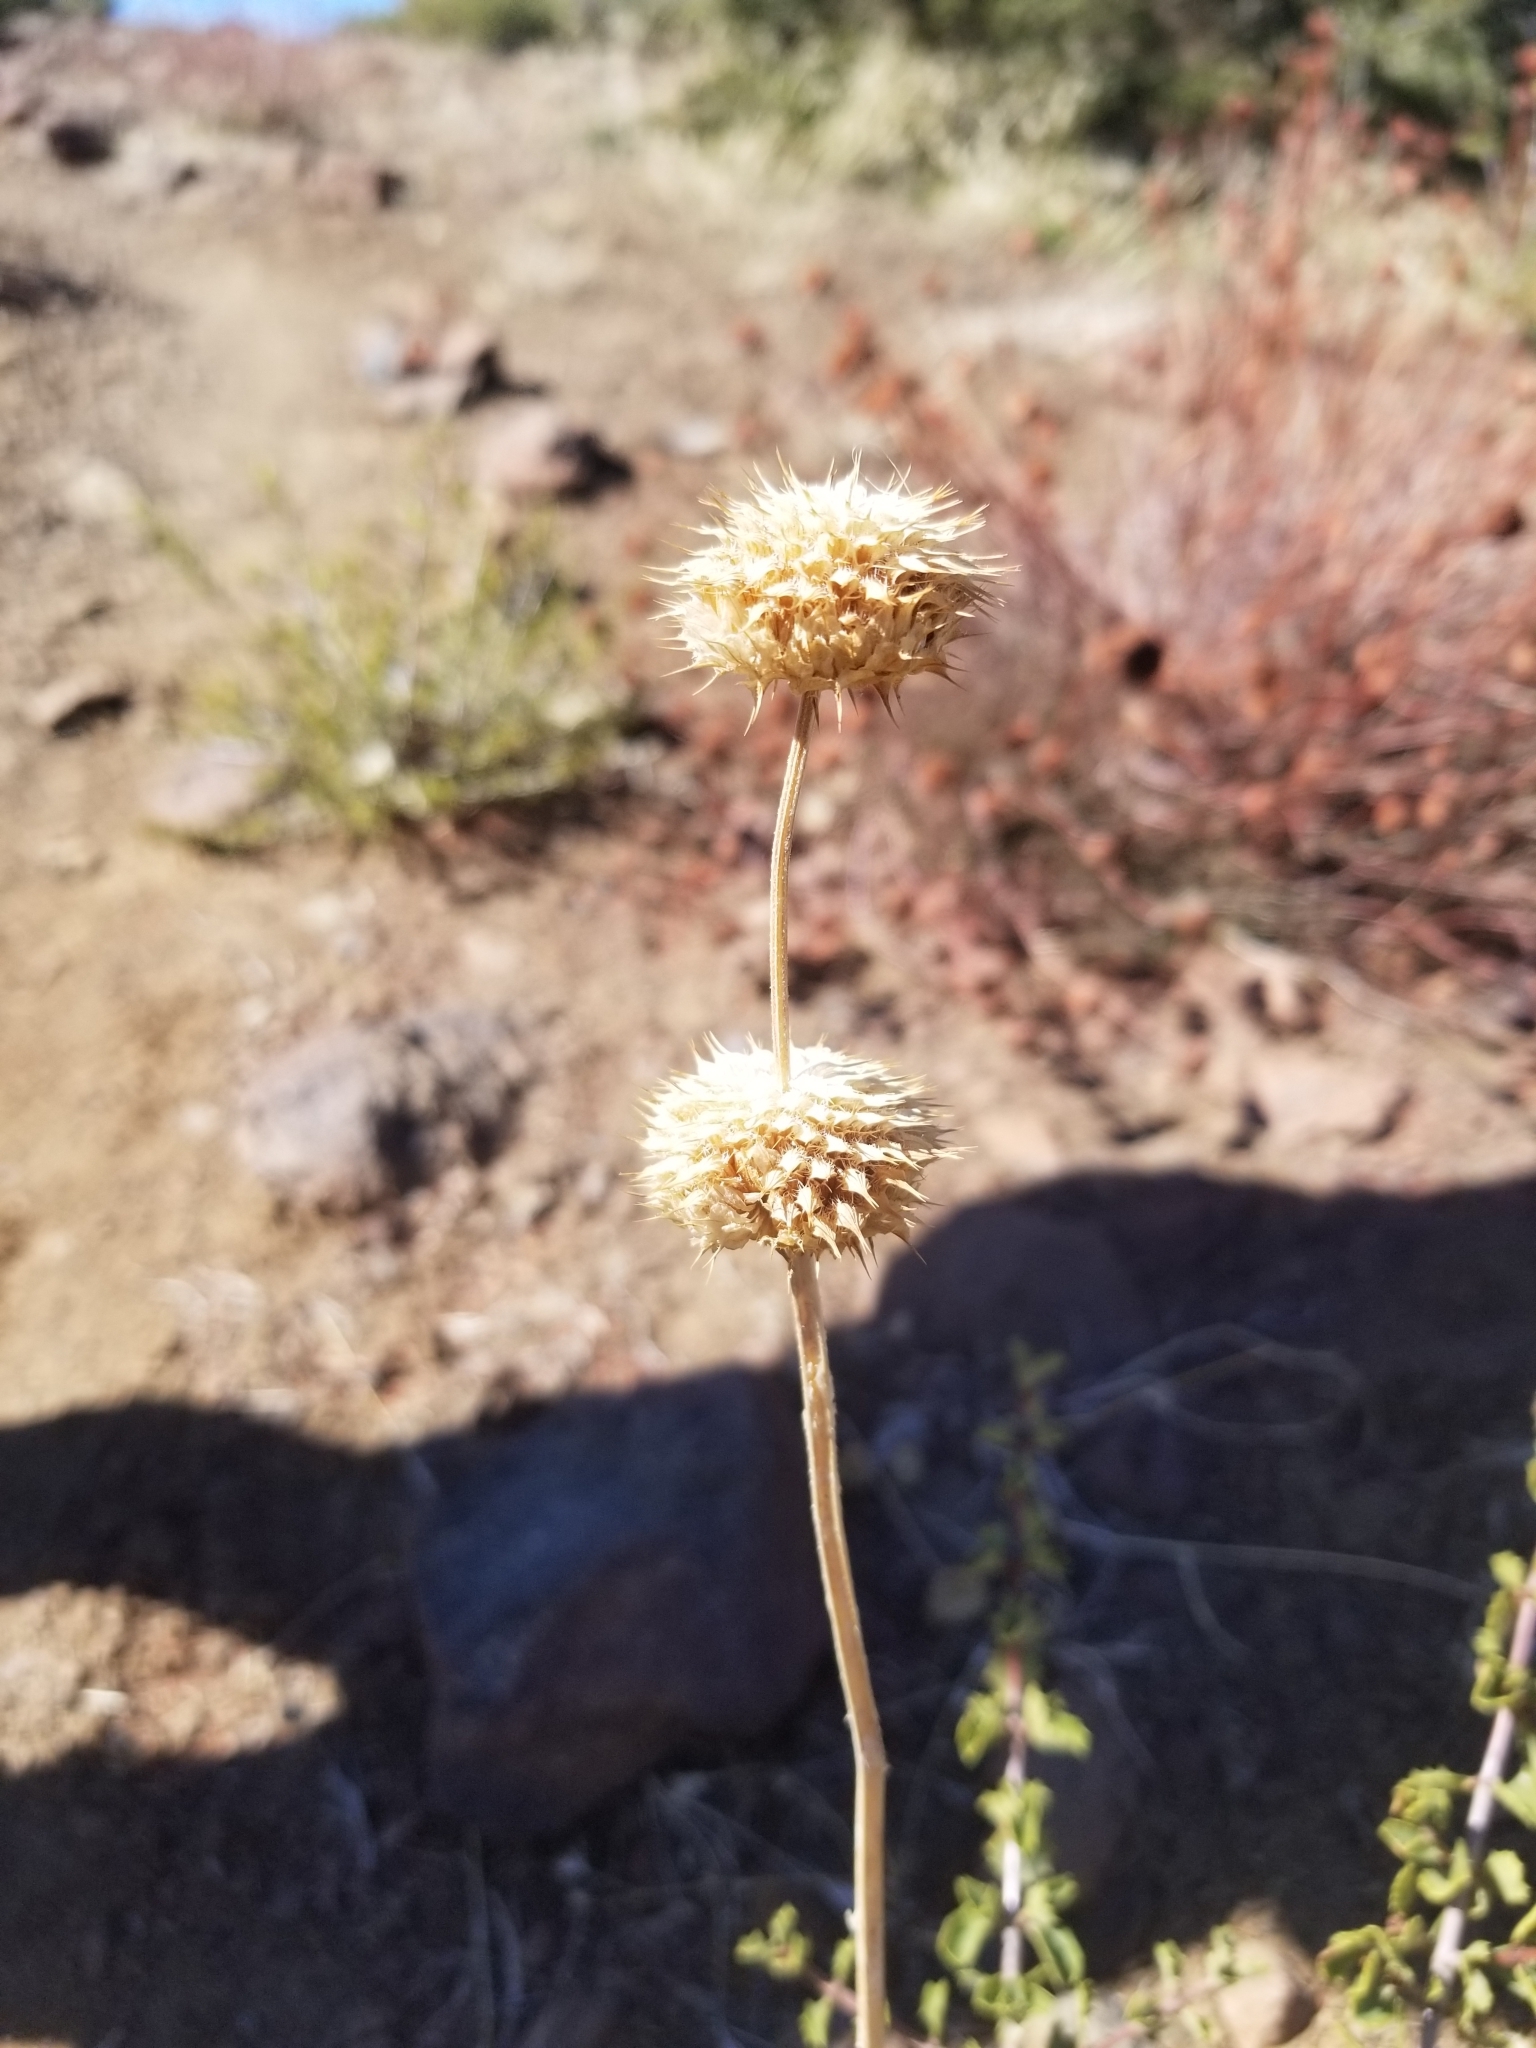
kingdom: Plantae
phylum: Tracheophyta
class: Magnoliopsida
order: Lamiales
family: Lamiaceae
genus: Salvia
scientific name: Salvia columbariae
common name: Chia
